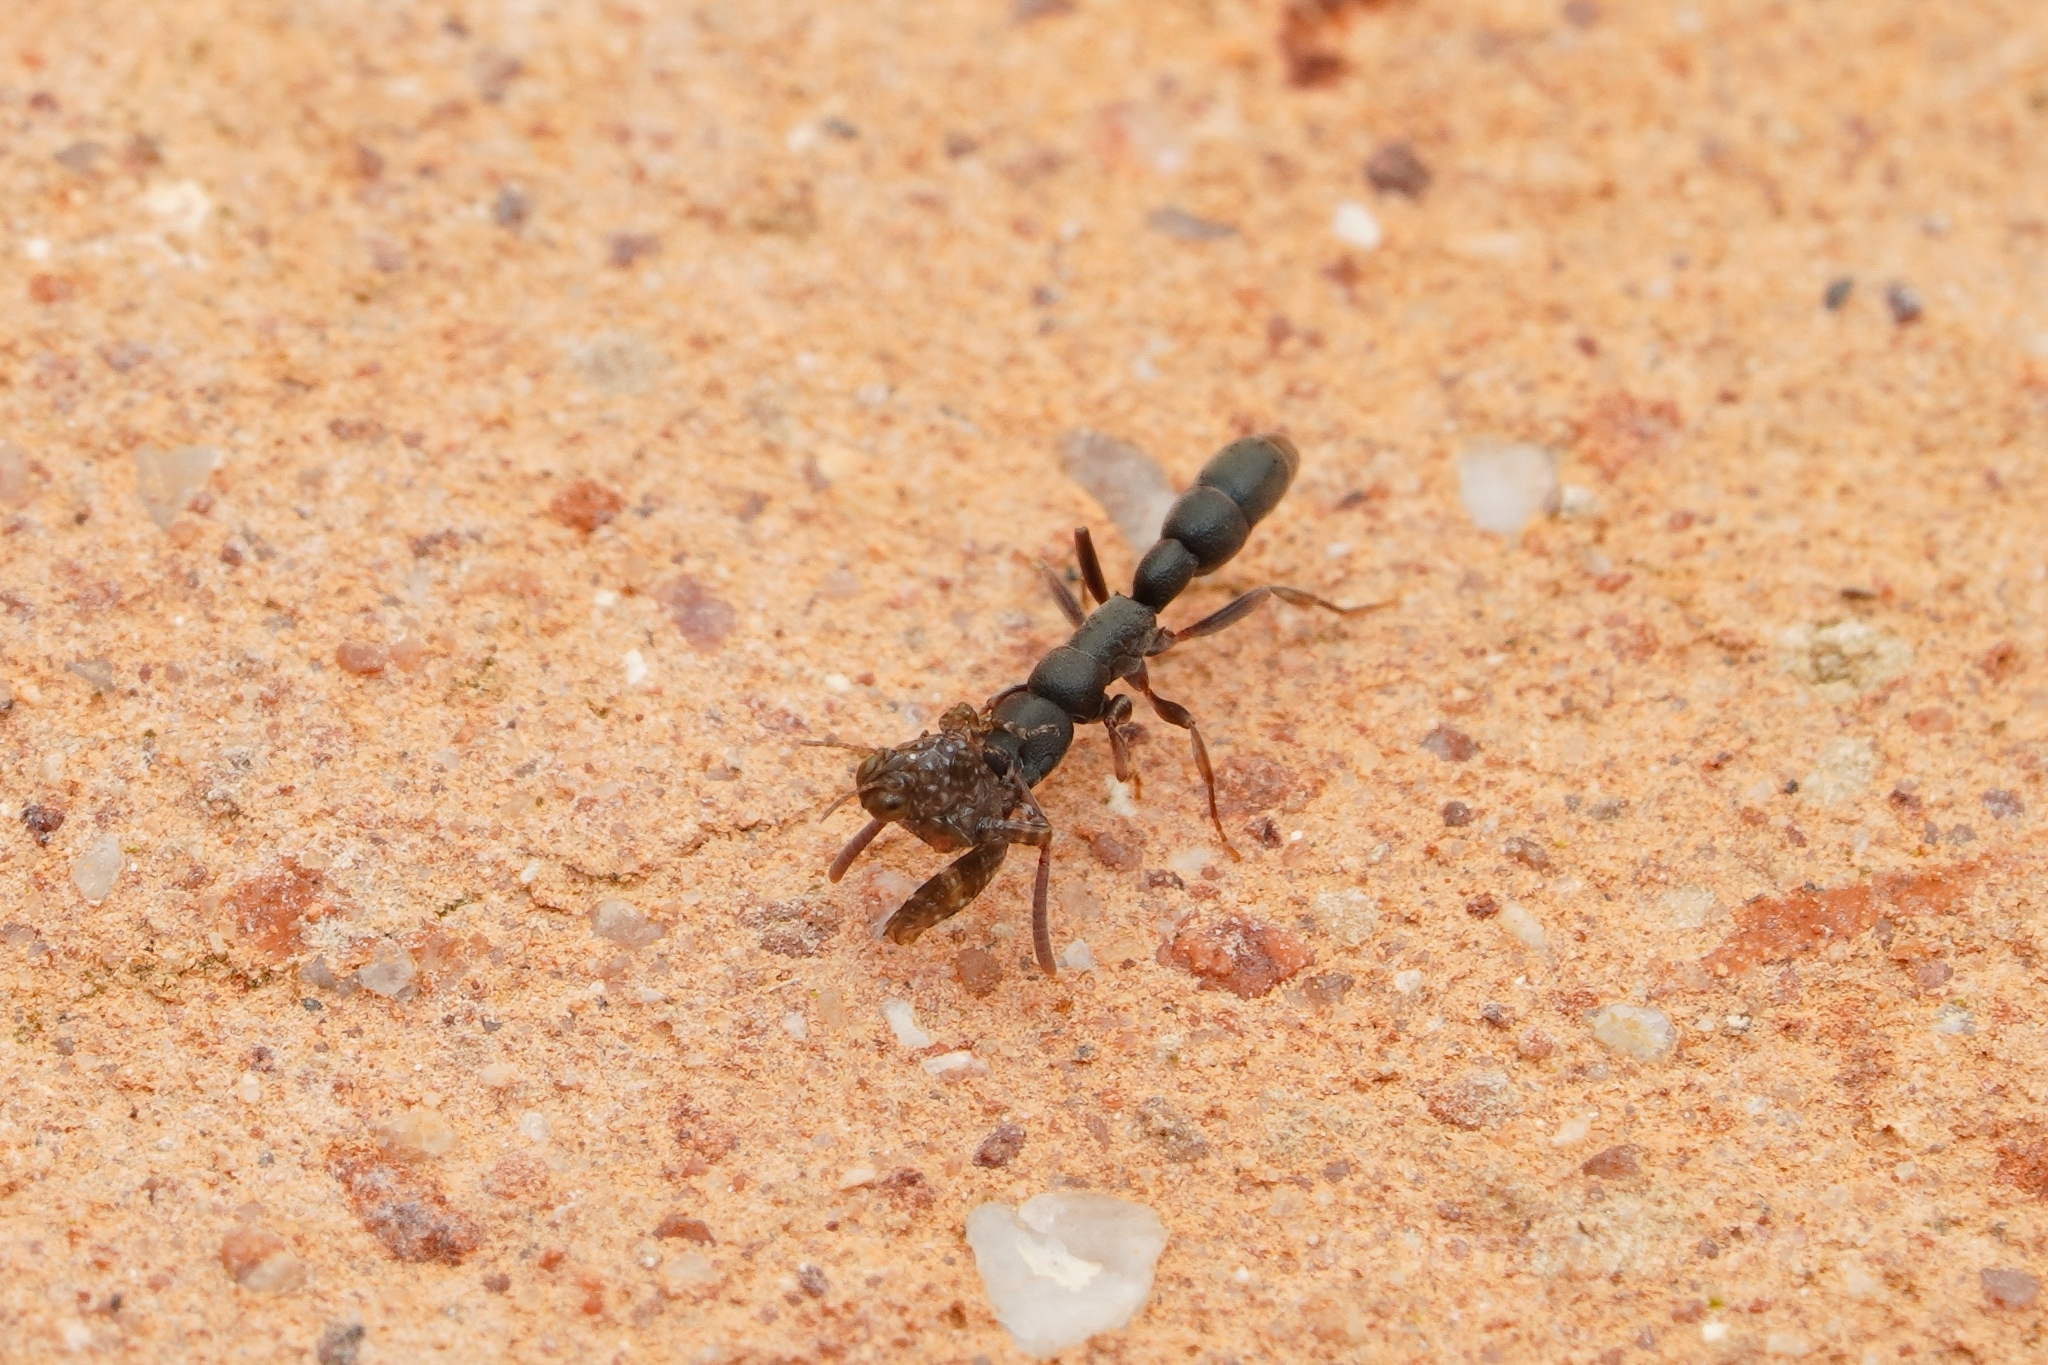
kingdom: Animalia
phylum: Arthropoda
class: Insecta
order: Hymenoptera
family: Formicidae
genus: Platythyrea
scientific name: Platythyrea parallela
